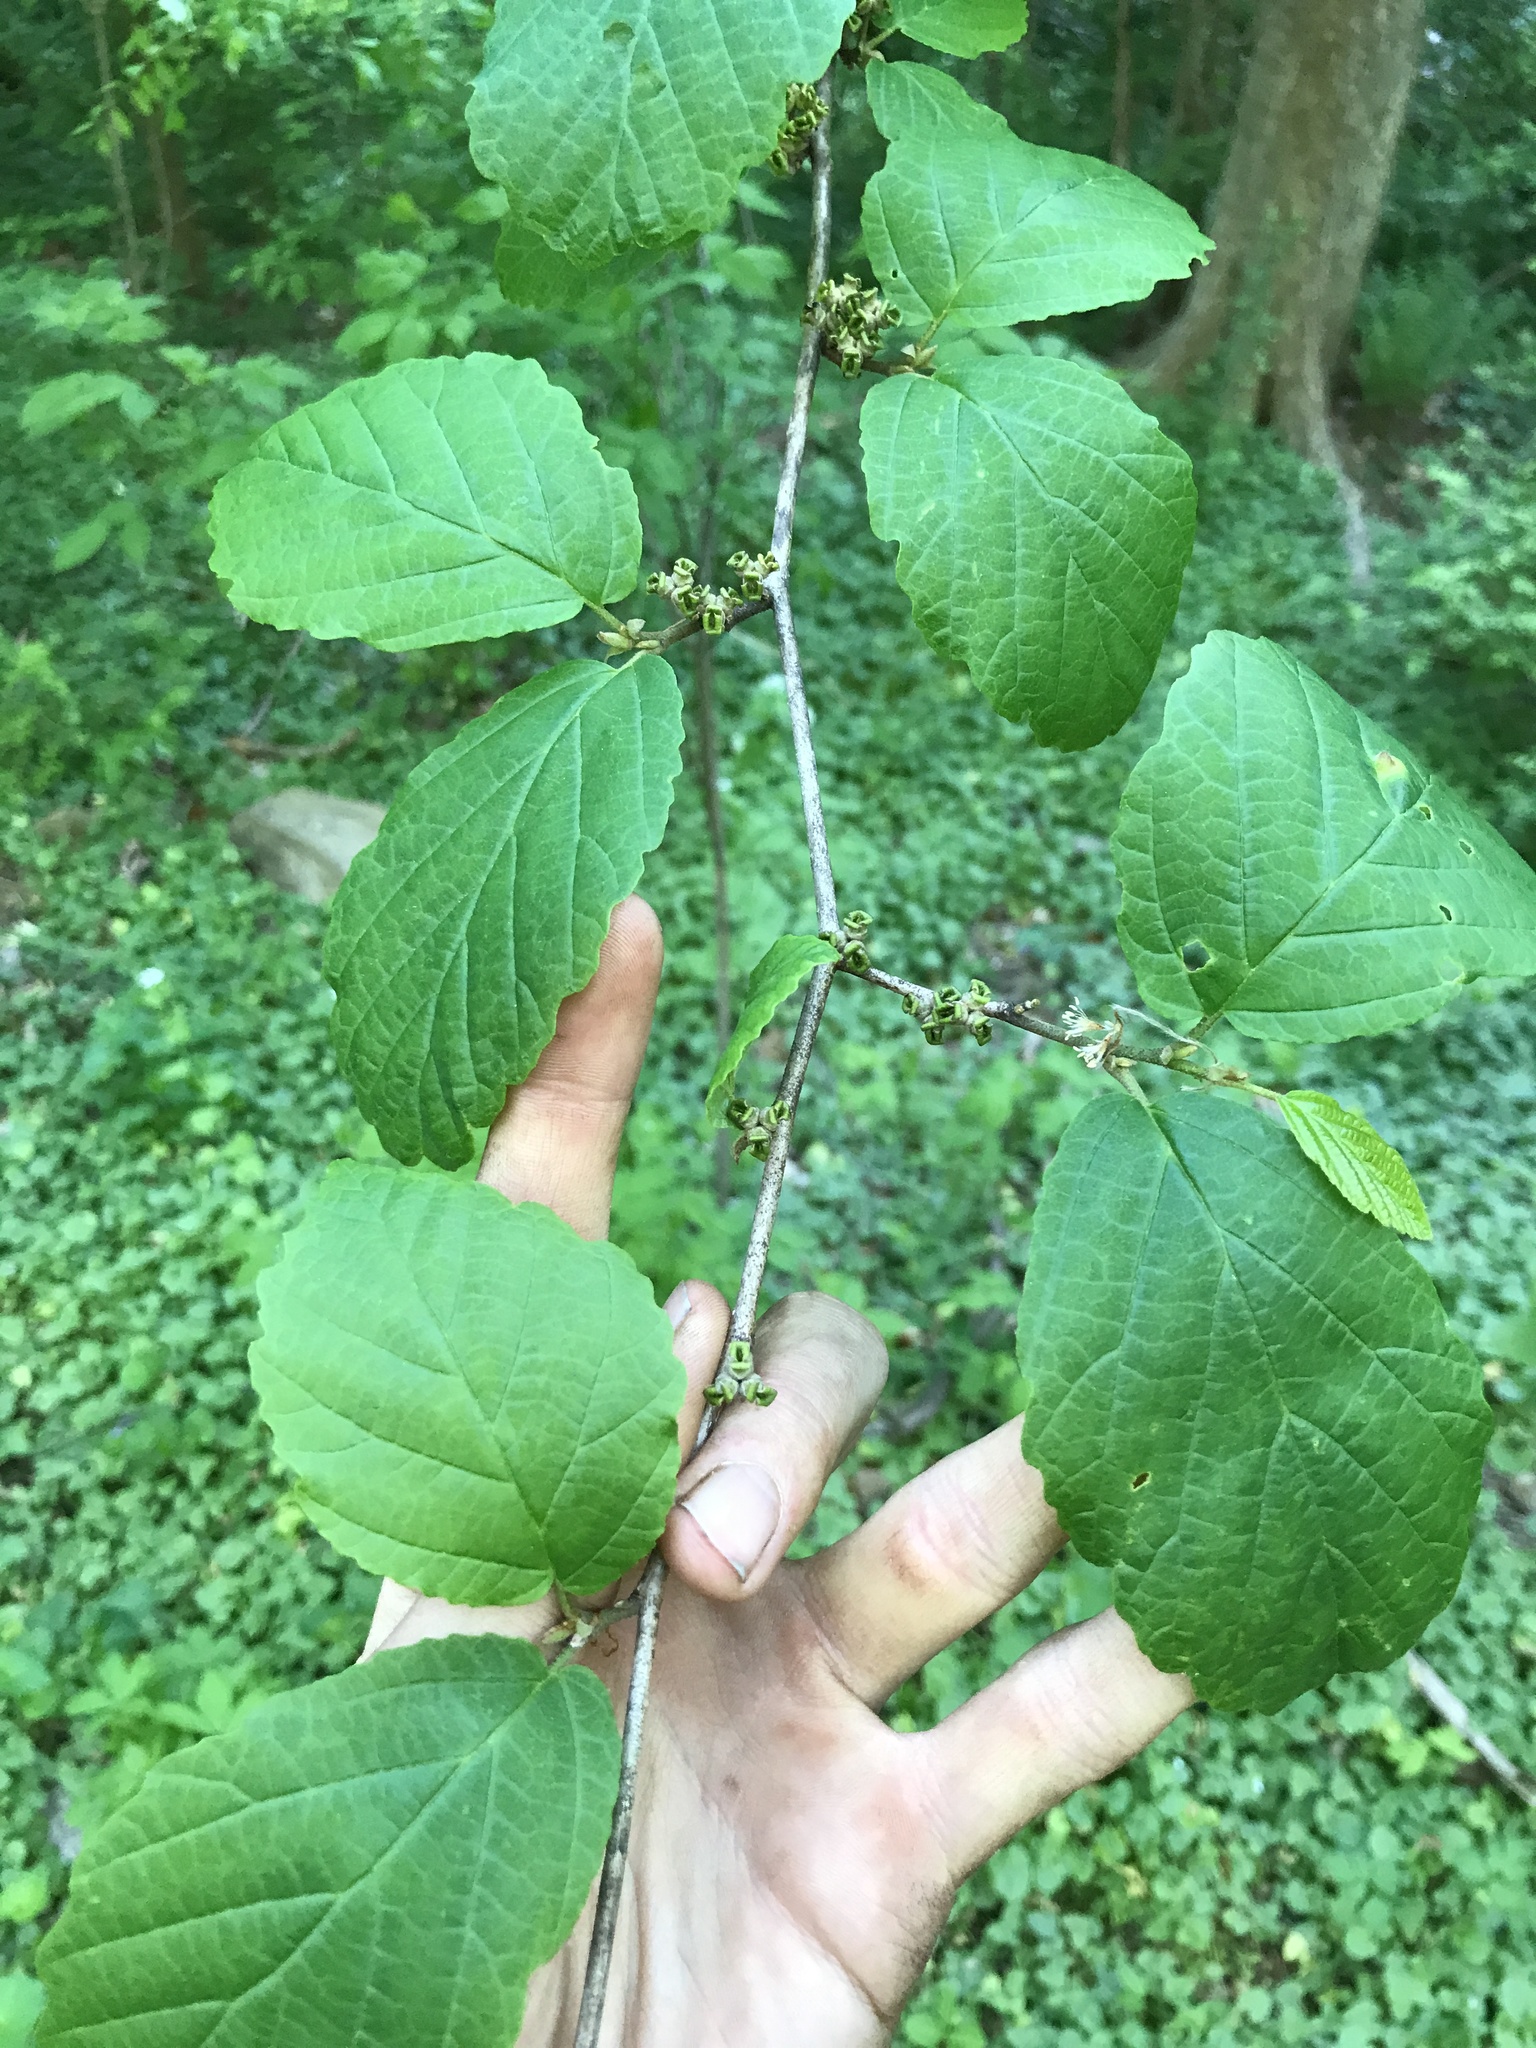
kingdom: Plantae
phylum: Tracheophyta
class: Magnoliopsida
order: Saxifragales
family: Hamamelidaceae
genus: Hamamelis
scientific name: Hamamelis virginiana
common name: Witch-hazel
